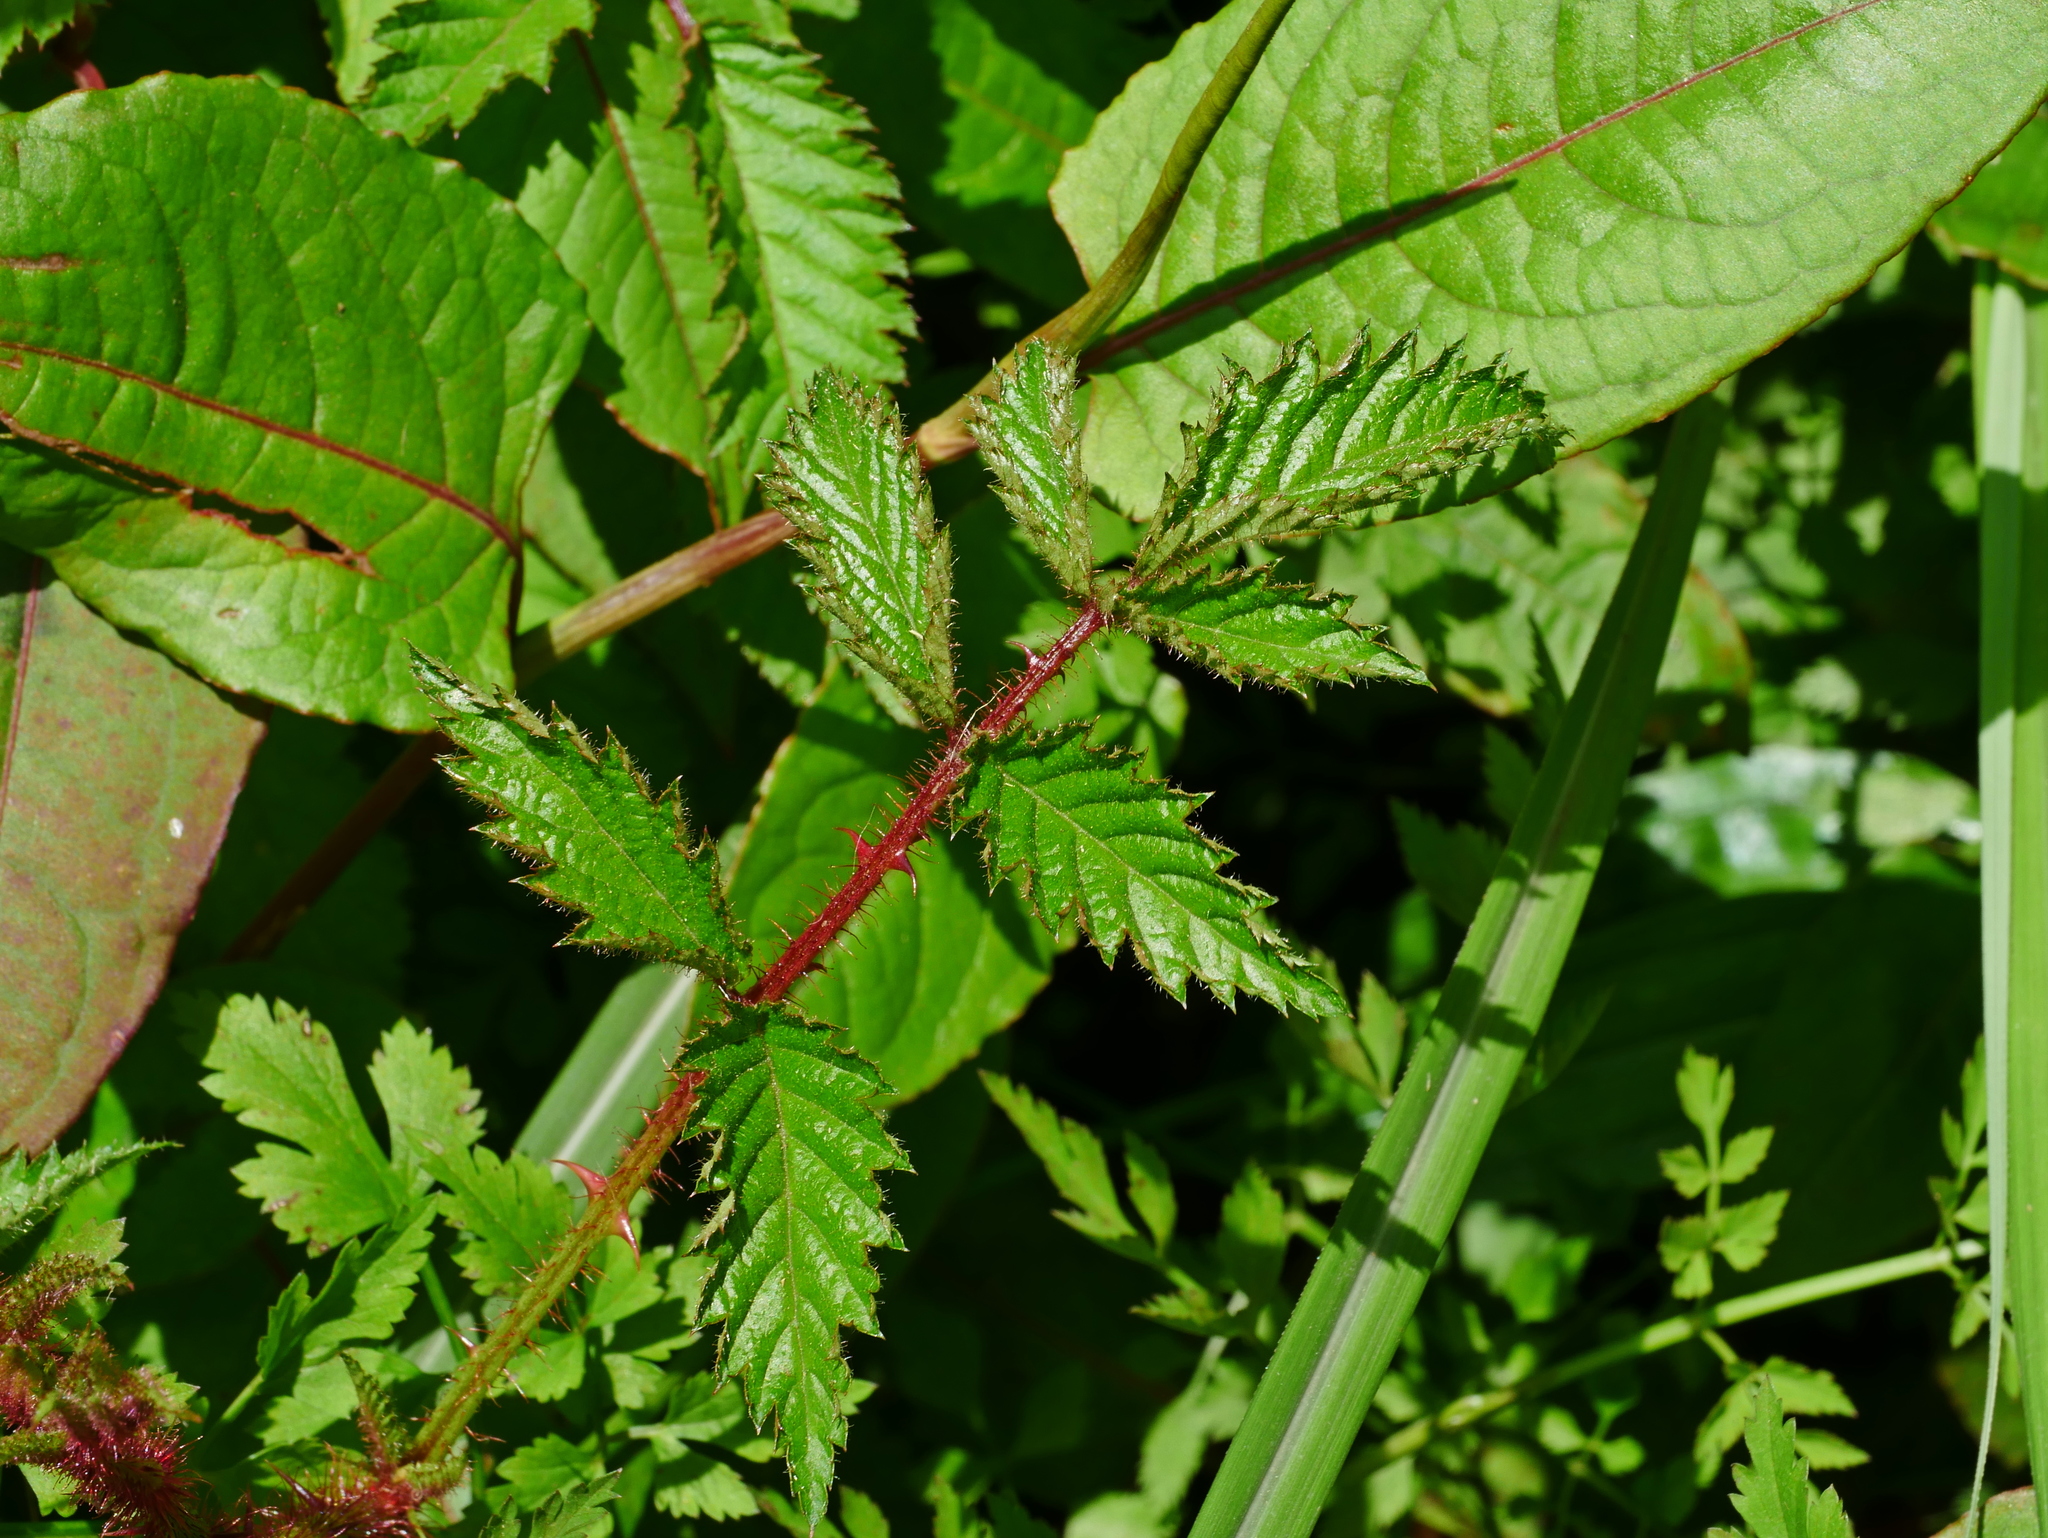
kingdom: Plantae
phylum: Tracheophyta
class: Magnoliopsida
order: Rosales
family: Rosaceae
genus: Rubus
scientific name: Rubus croceacanthus
